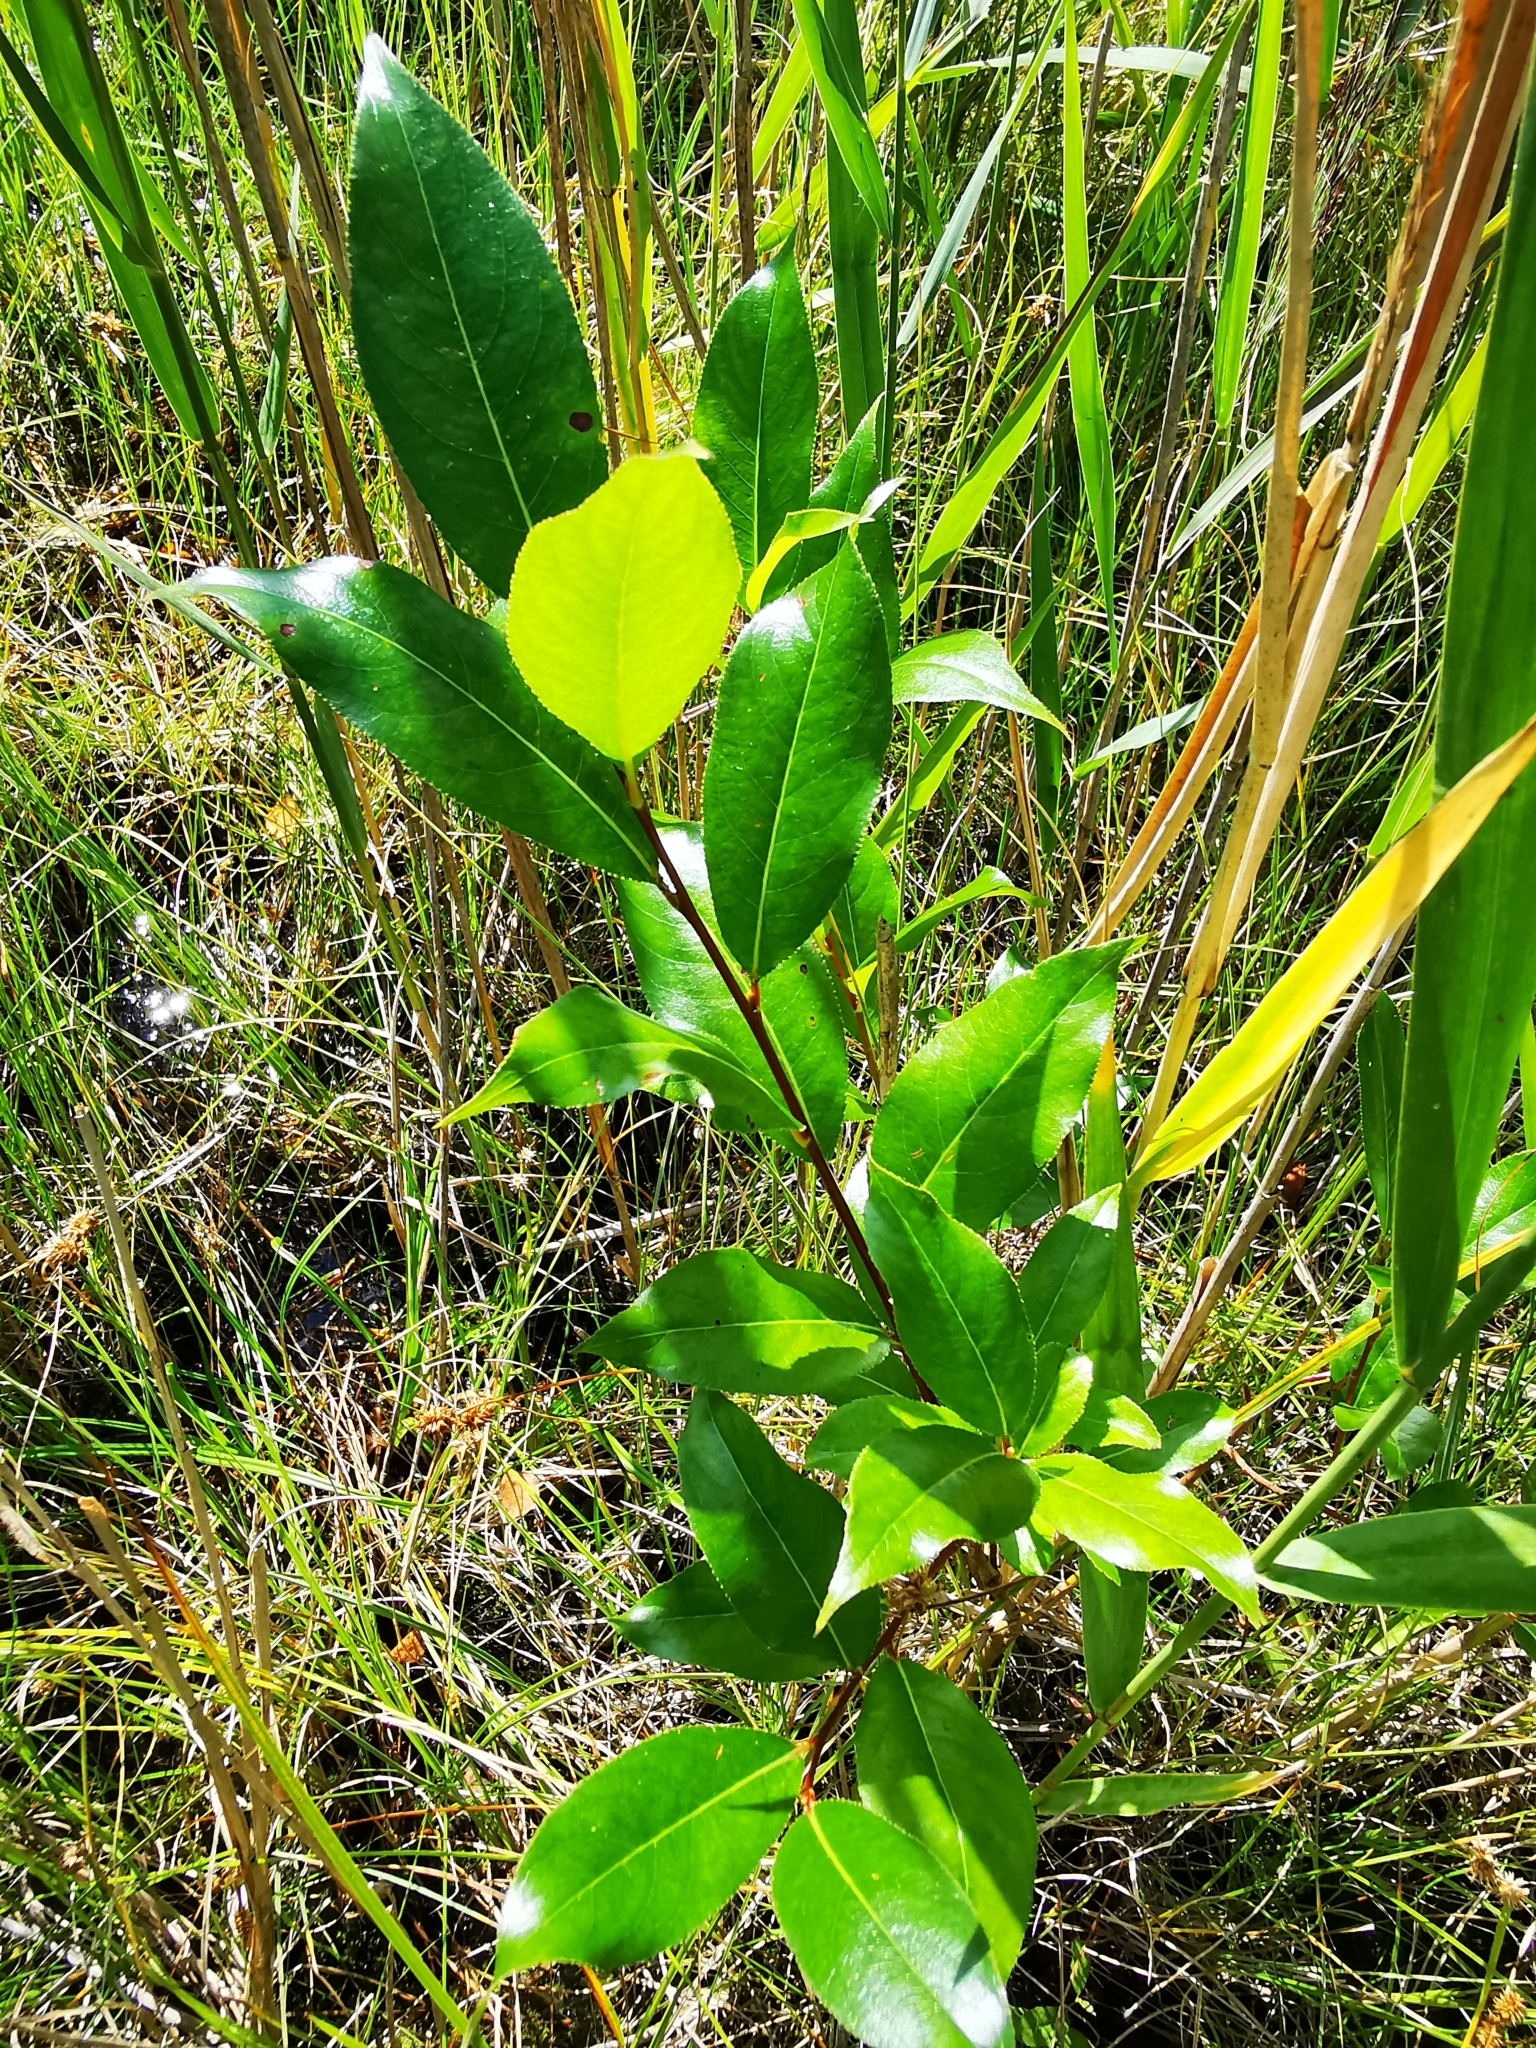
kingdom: Plantae
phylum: Tracheophyta
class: Magnoliopsida
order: Malpighiales
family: Salicaceae
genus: Salix
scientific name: Salix pentandra
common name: Bay willow
